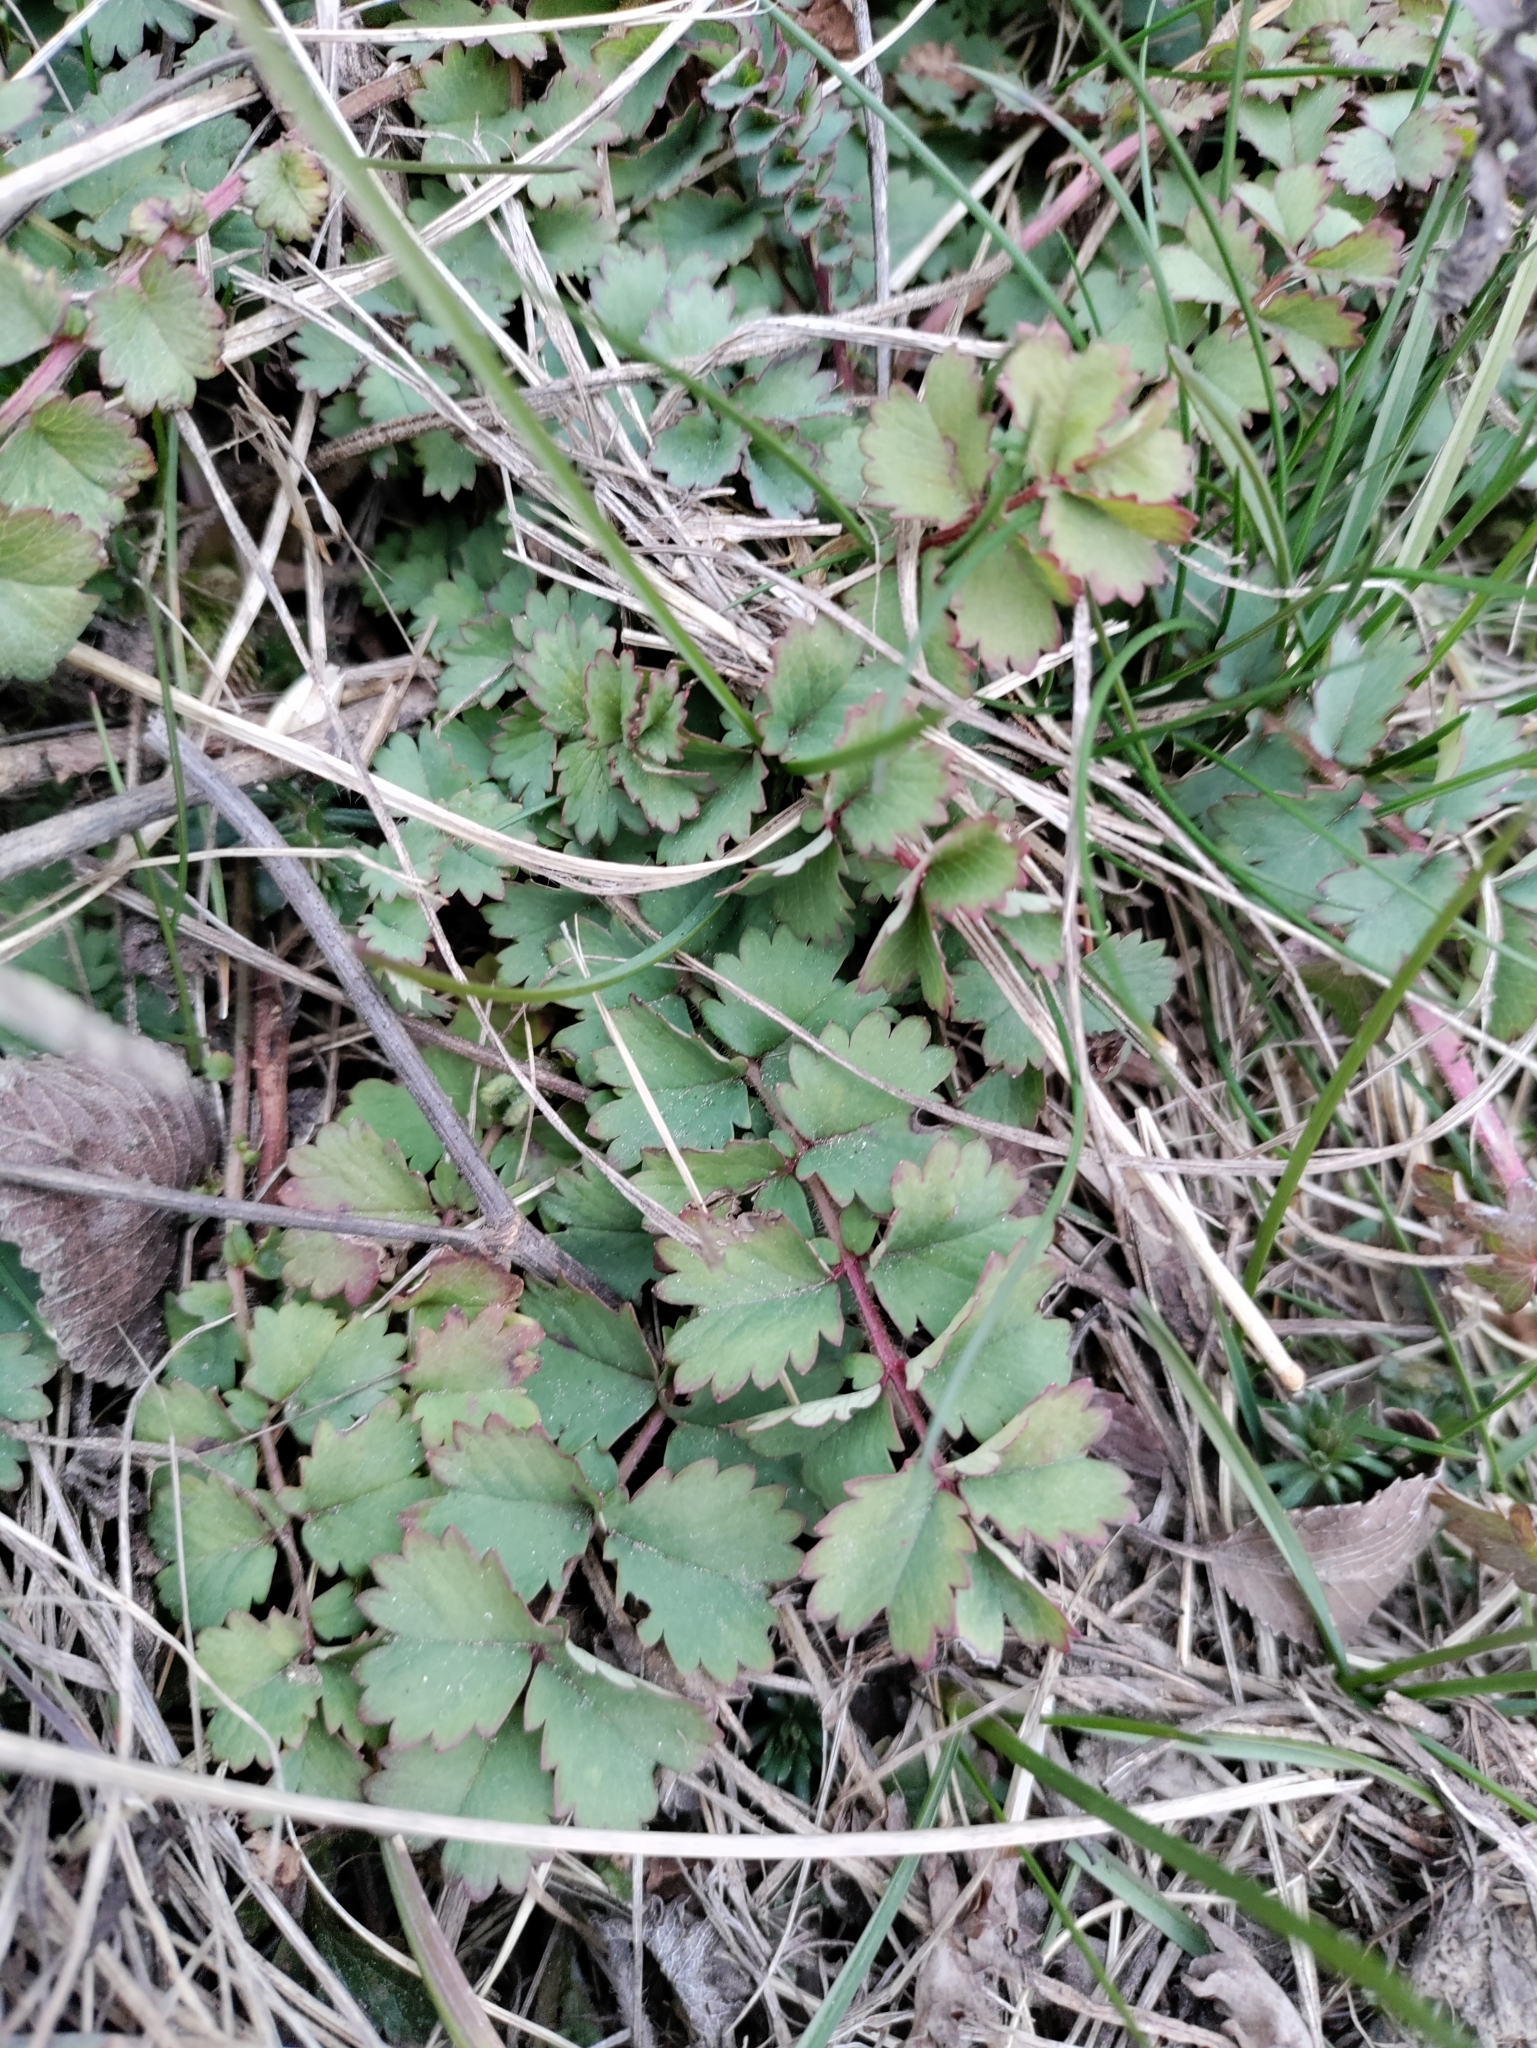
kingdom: Plantae
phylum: Tracheophyta
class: Magnoliopsida
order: Rosales
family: Rosaceae
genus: Poterium
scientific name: Poterium sanguisorba
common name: Salad burnet
